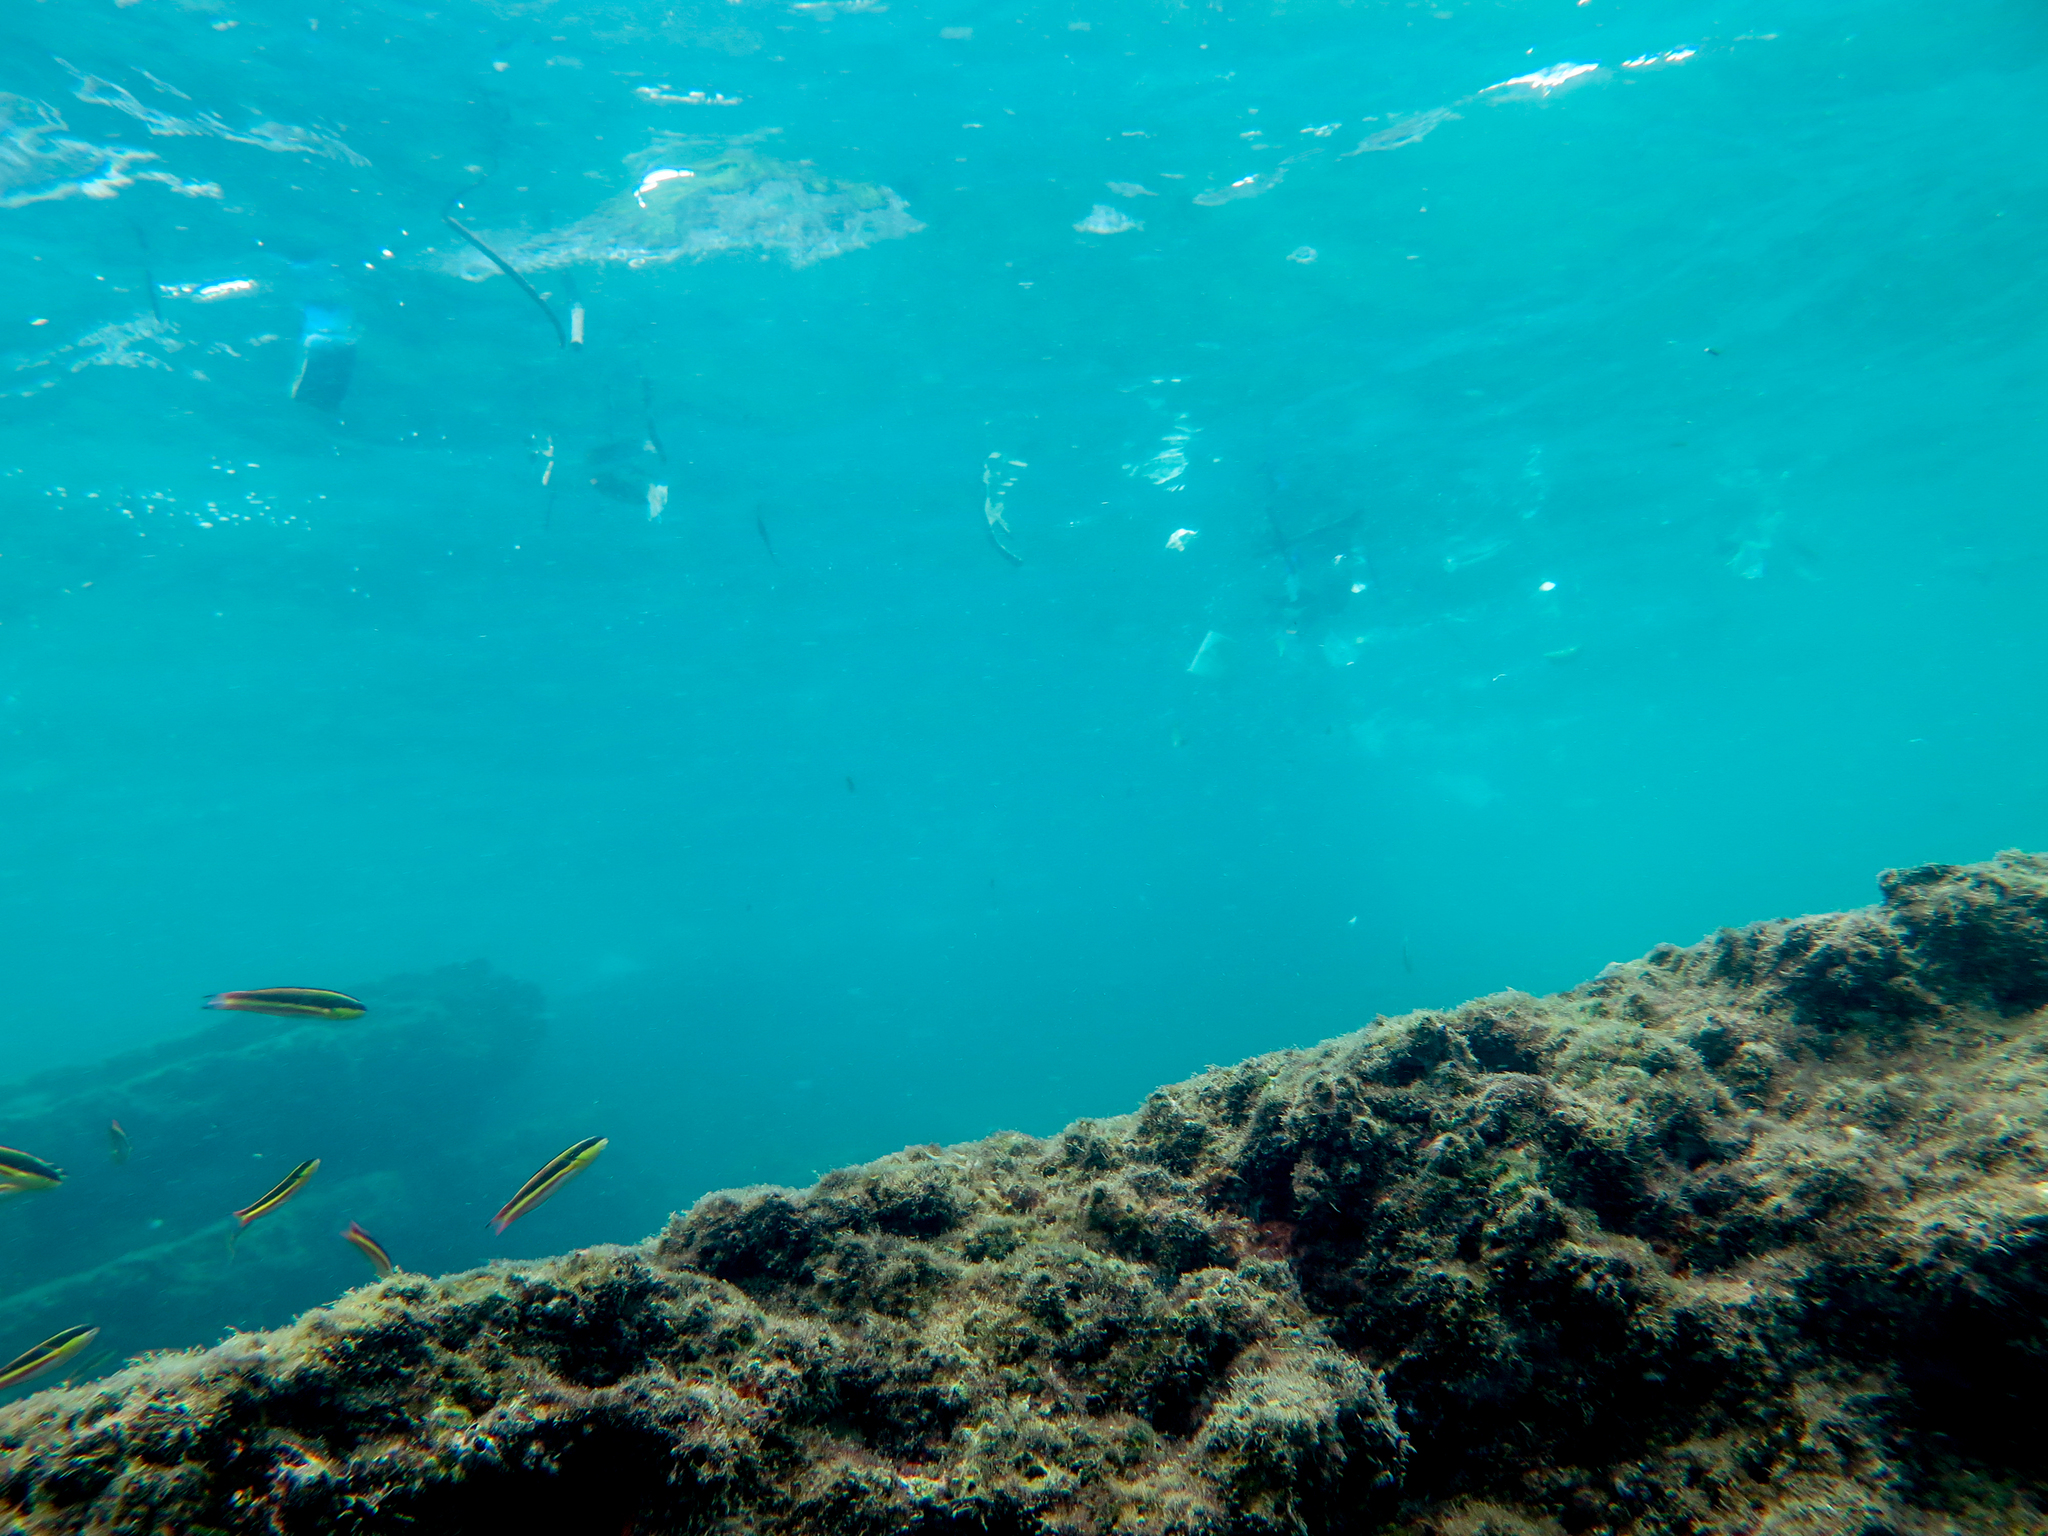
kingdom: Animalia
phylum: Chordata
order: Perciformes
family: Labridae
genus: Thalassoma
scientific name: Thalassoma lucasanum
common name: Cortez rainbow wrasse
